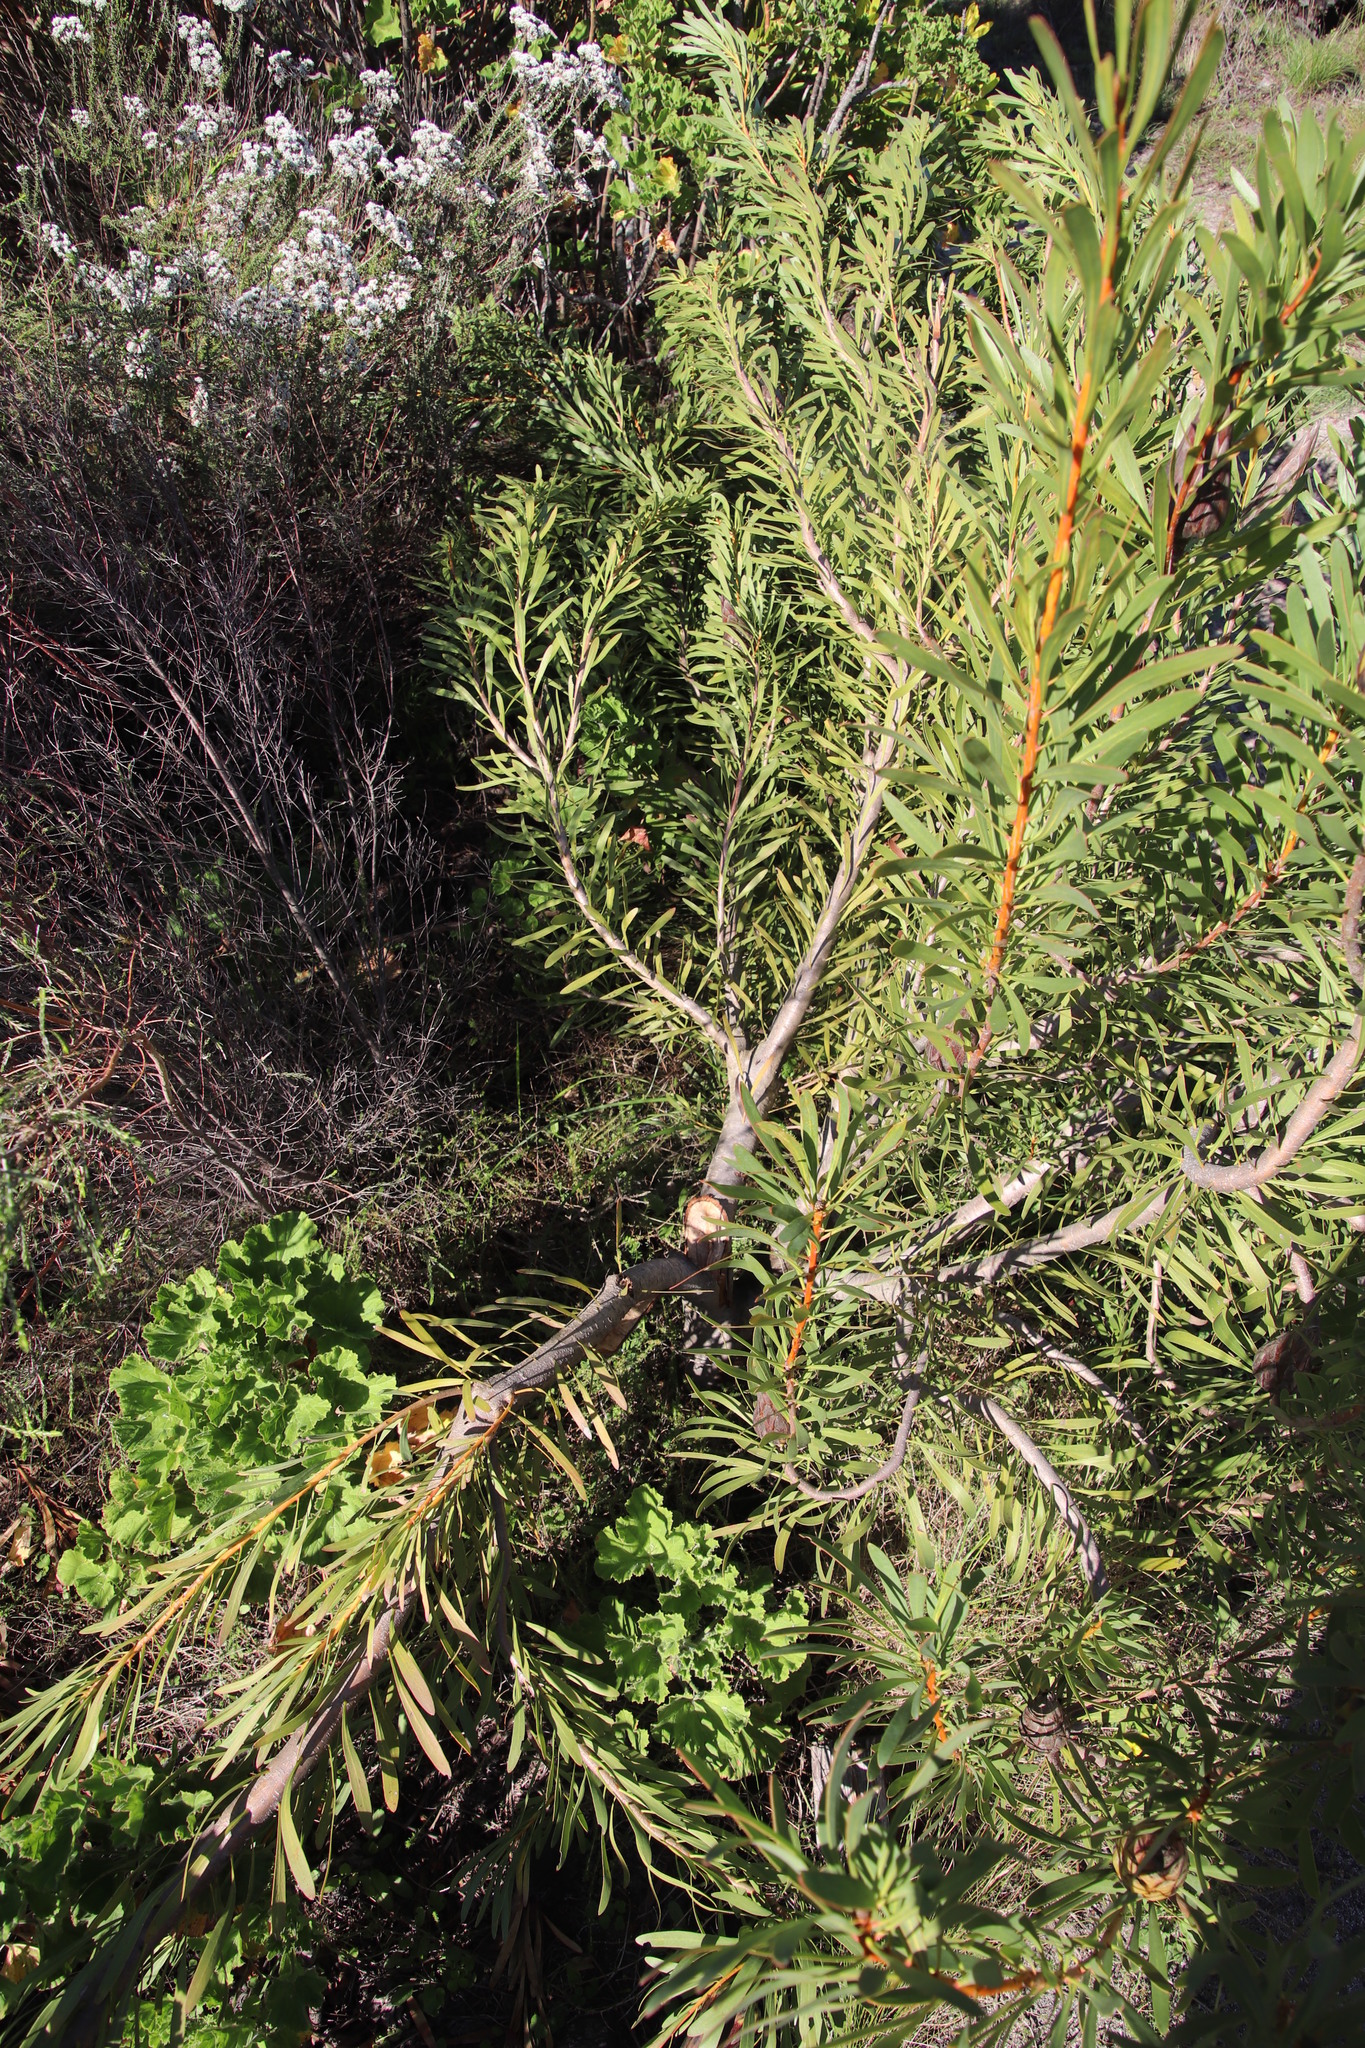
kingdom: Plantae
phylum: Tracheophyta
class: Magnoliopsida
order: Proteales
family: Proteaceae
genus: Protea
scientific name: Protea repens
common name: Sugarbush
